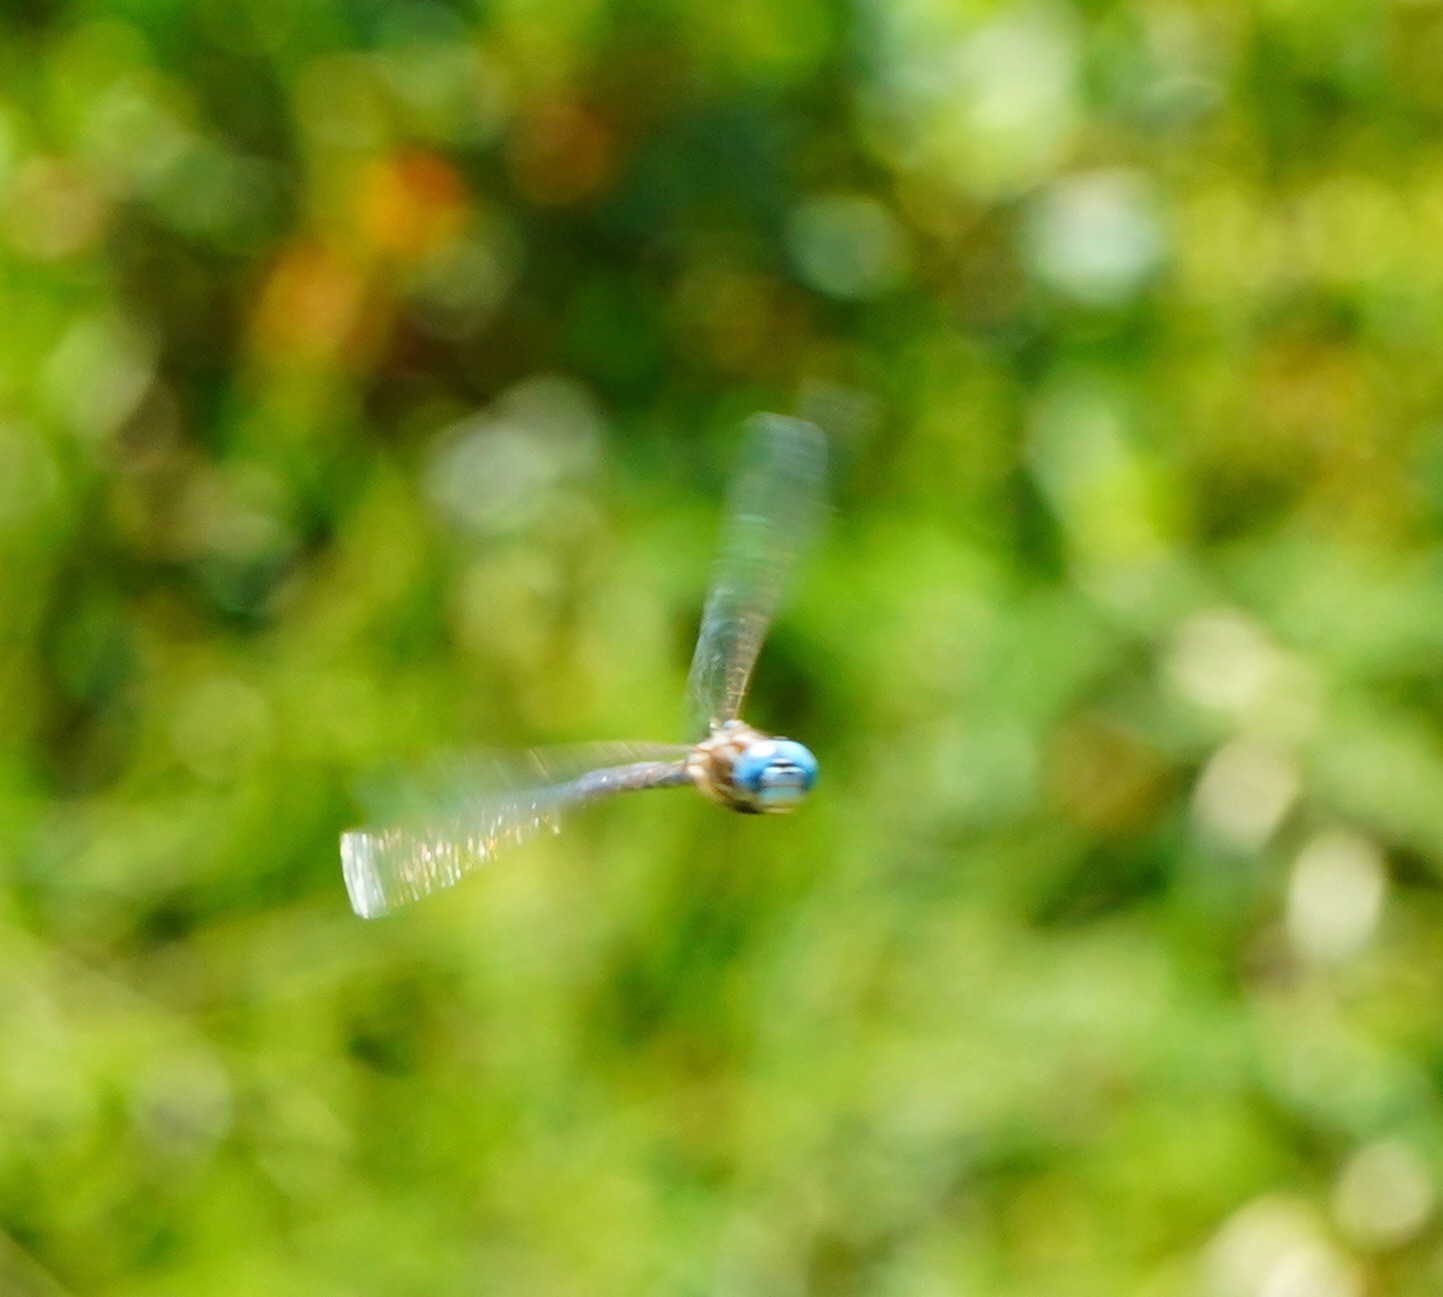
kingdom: Animalia
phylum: Arthropoda
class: Insecta
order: Odonata
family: Aeshnidae
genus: Rhionaeschna
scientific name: Rhionaeschna multicolor
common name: Blue-eyed darner
